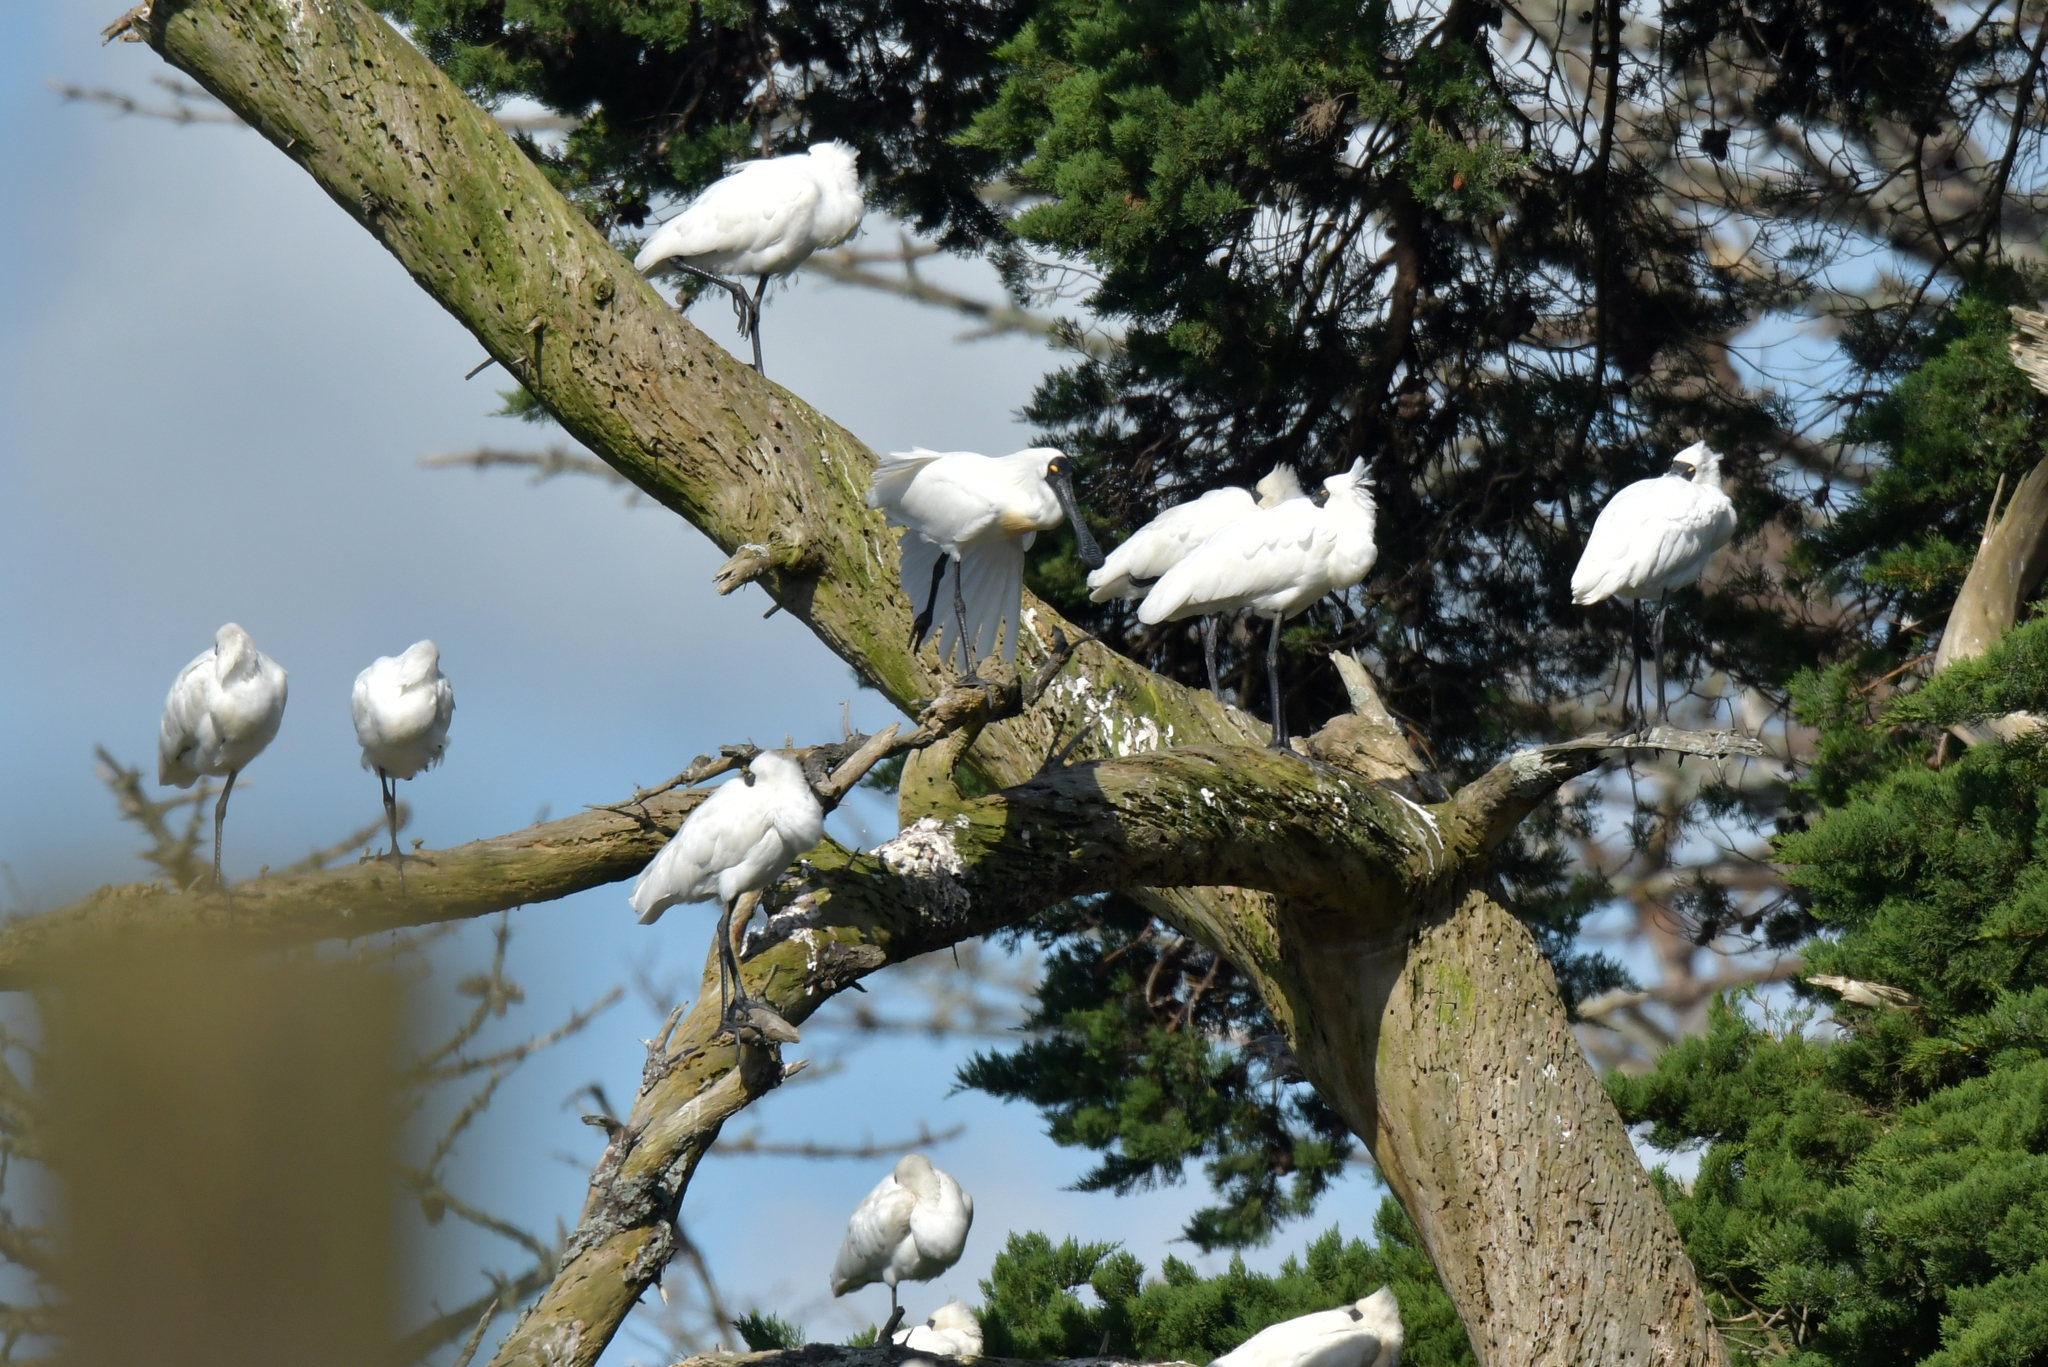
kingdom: Animalia
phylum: Chordata
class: Aves
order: Pelecaniformes
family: Threskiornithidae
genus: Platalea
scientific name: Platalea regia
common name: Royal spoonbill
